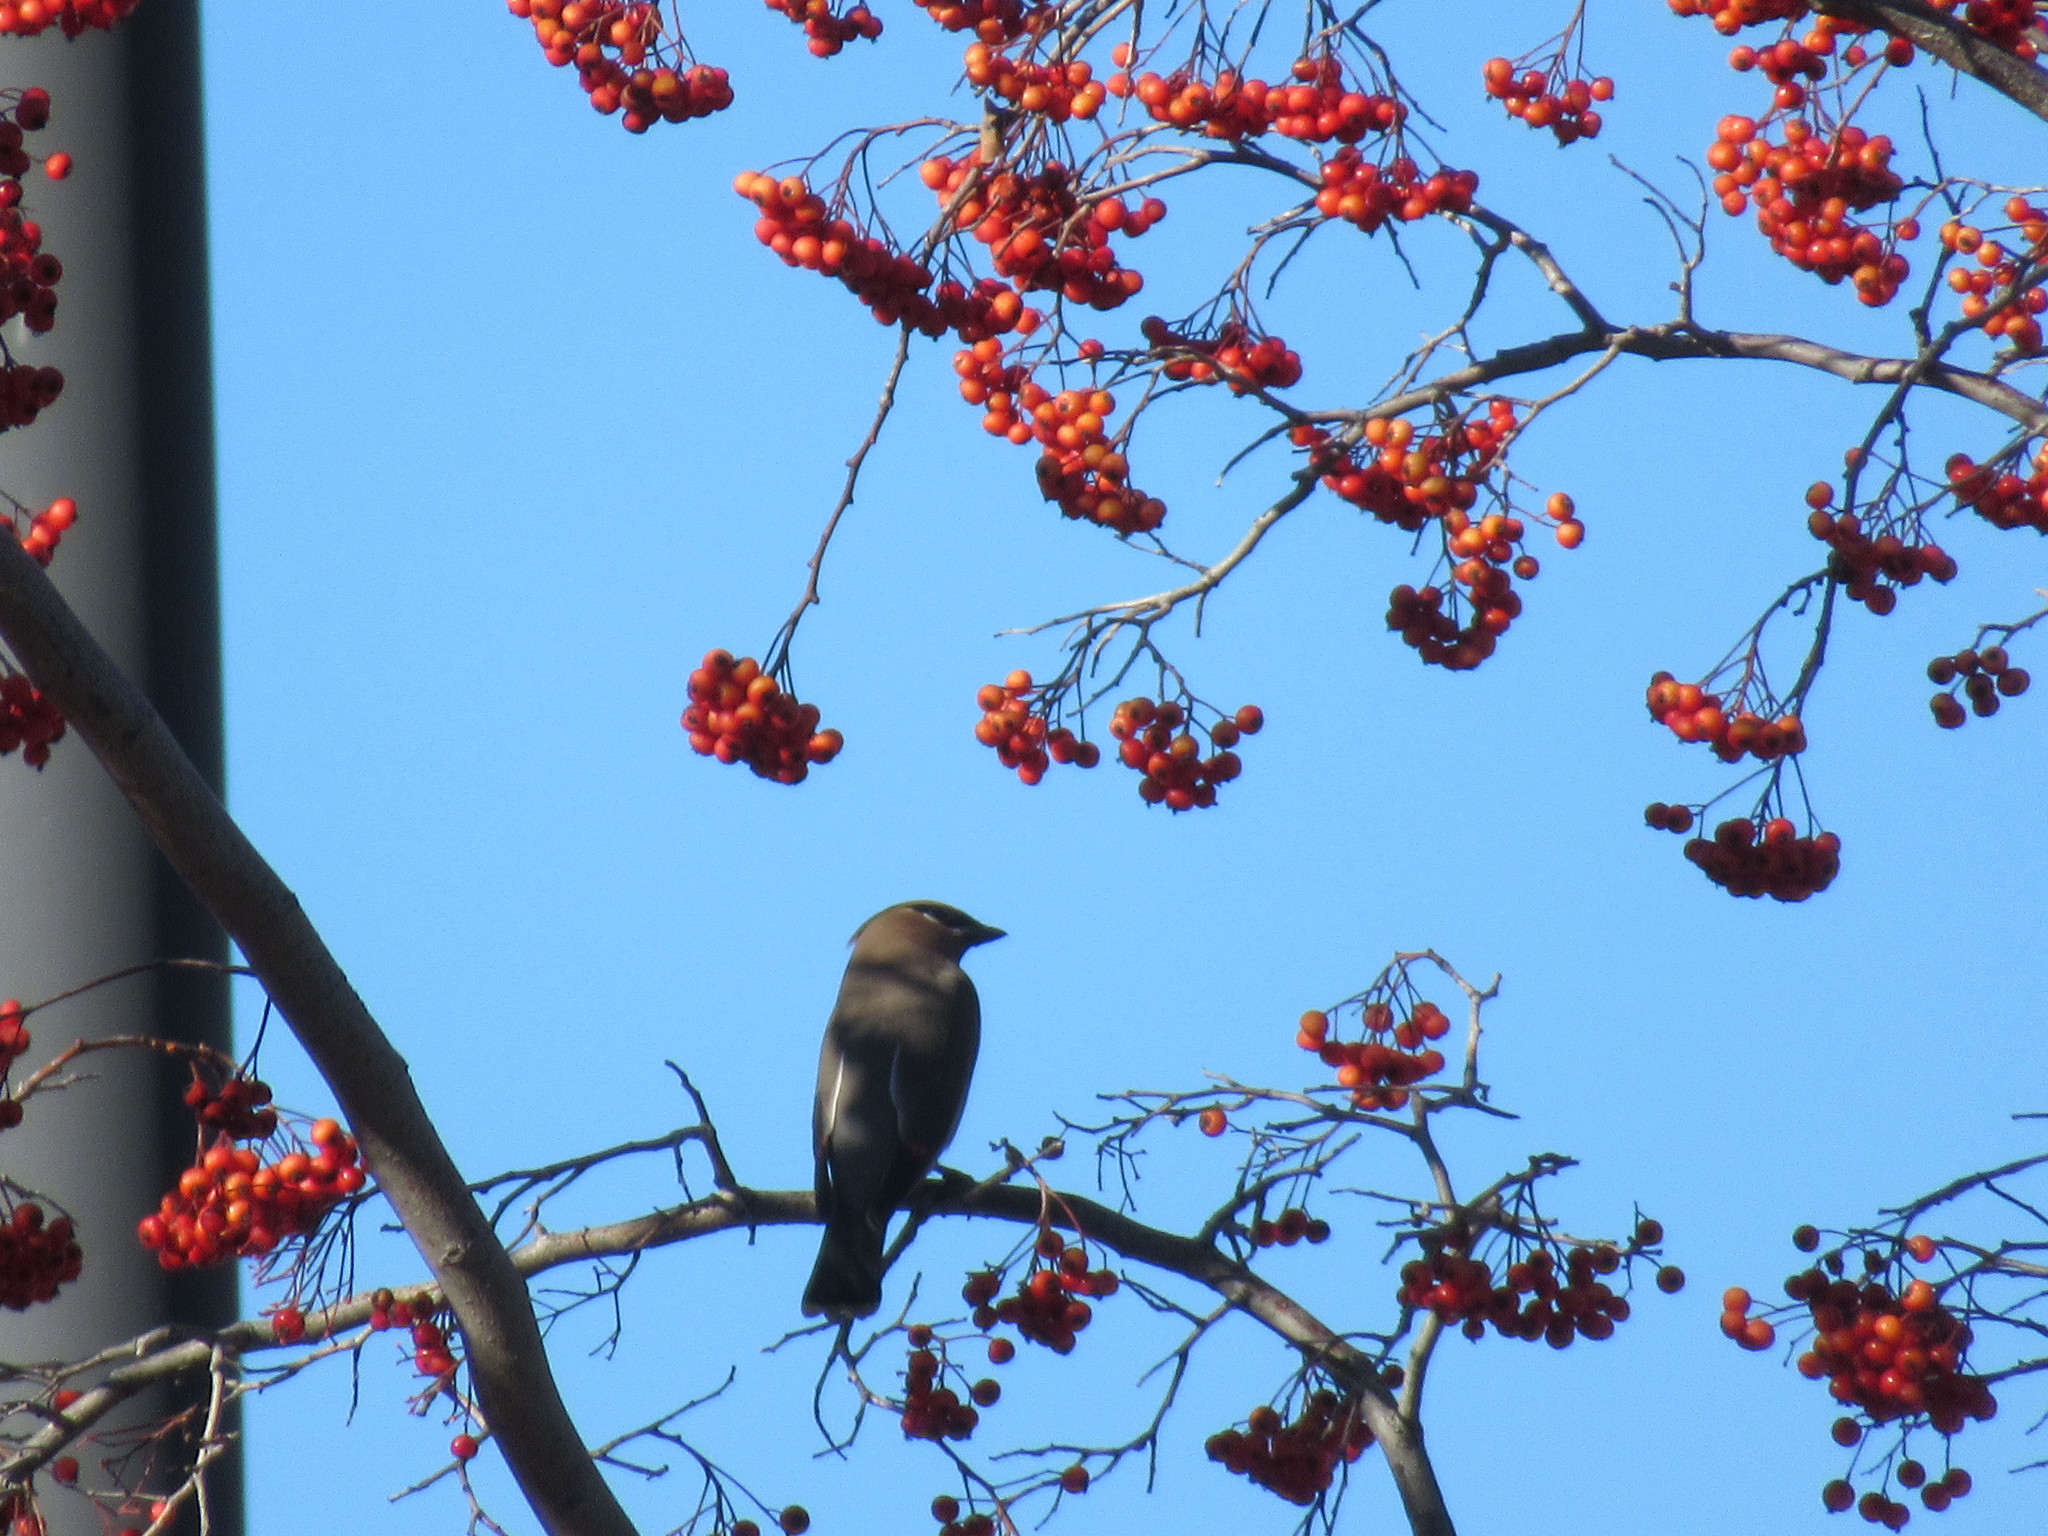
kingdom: Animalia
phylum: Chordata
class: Aves
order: Passeriformes
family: Bombycillidae
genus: Bombycilla
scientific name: Bombycilla cedrorum
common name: Cedar waxwing
